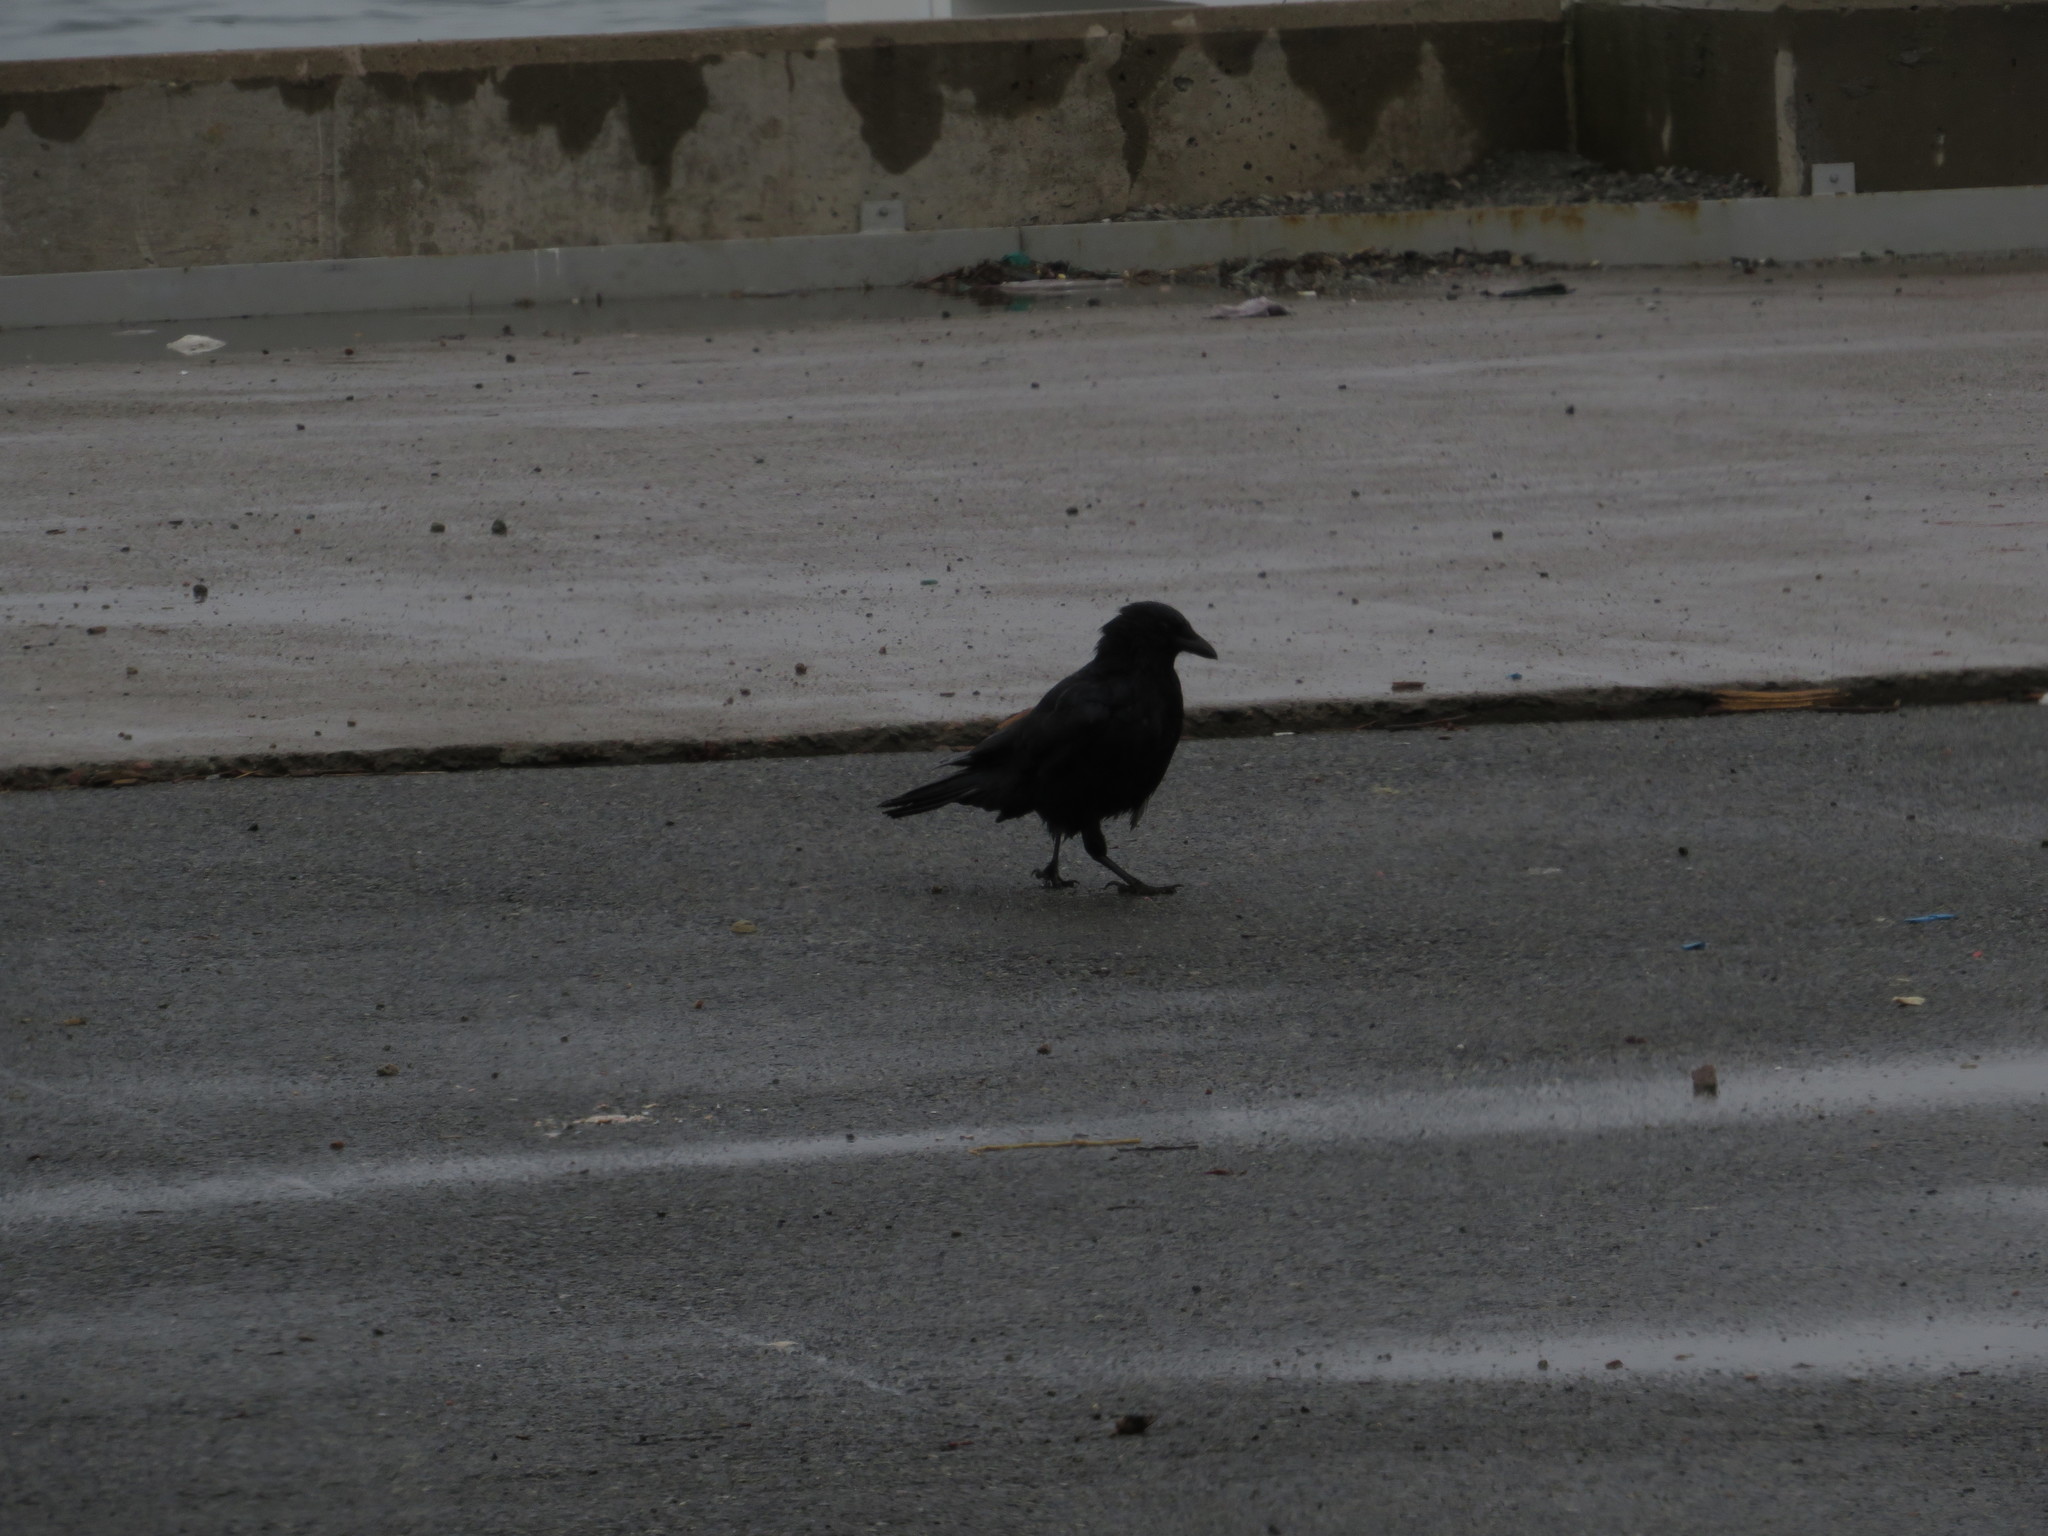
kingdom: Animalia
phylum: Chordata
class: Aves
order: Passeriformes
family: Corvidae
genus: Corvus
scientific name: Corvus brachyrhynchos
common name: American crow
